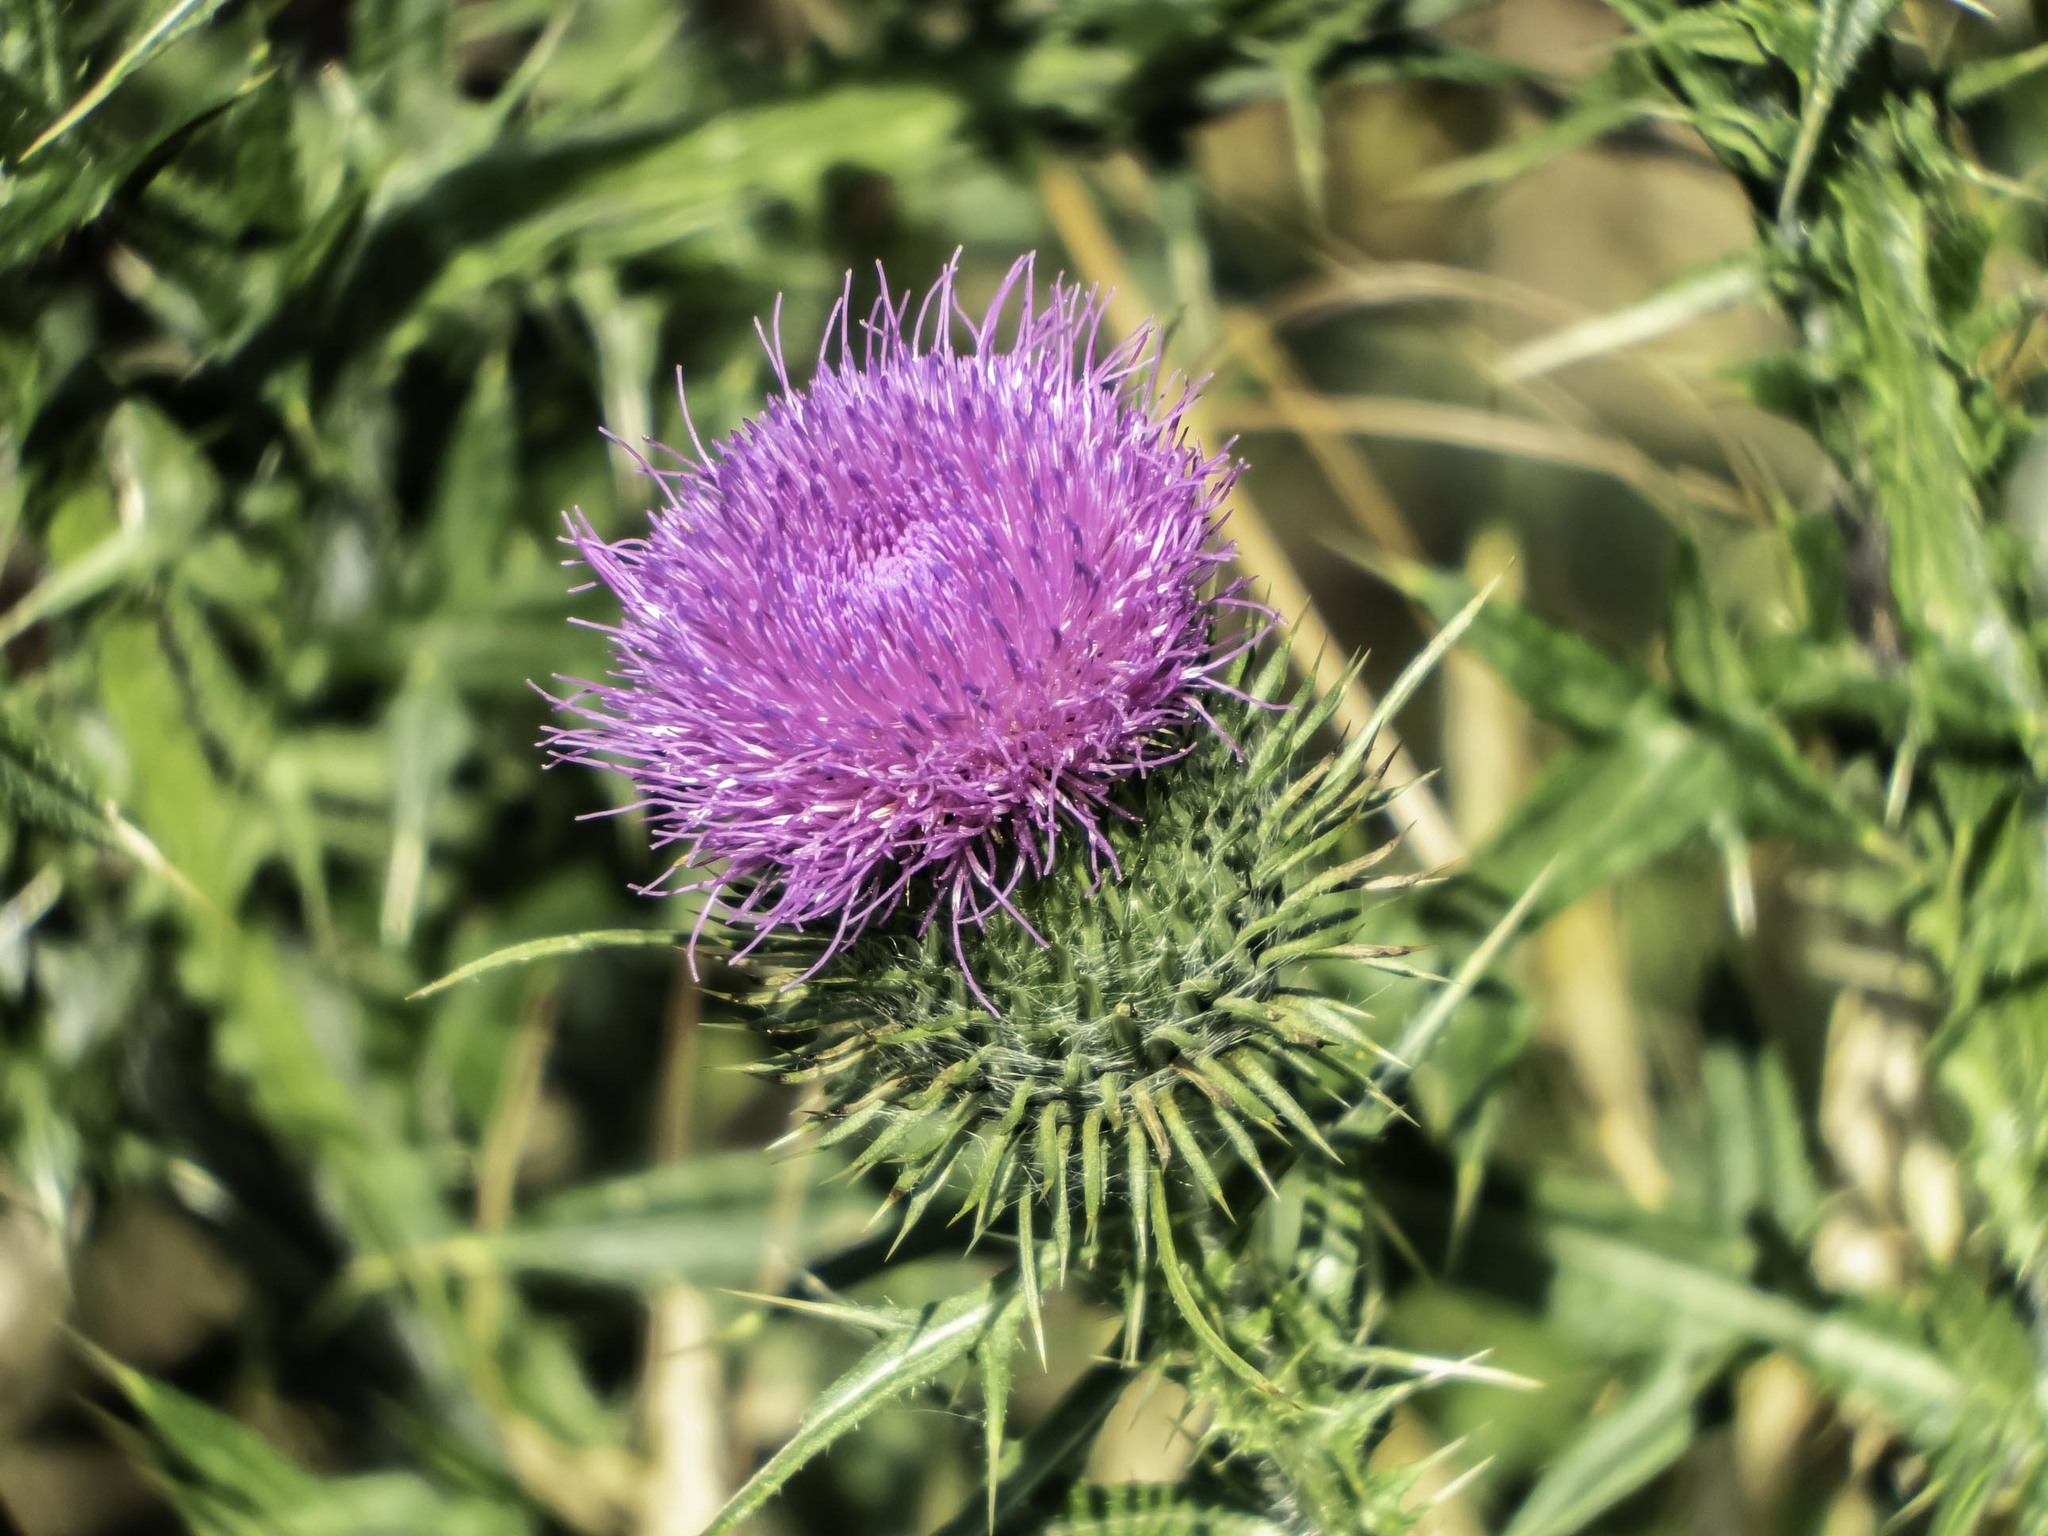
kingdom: Plantae
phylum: Tracheophyta
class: Magnoliopsida
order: Asterales
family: Asteraceae
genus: Cirsium
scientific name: Cirsium vulgare
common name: Bull thistle
